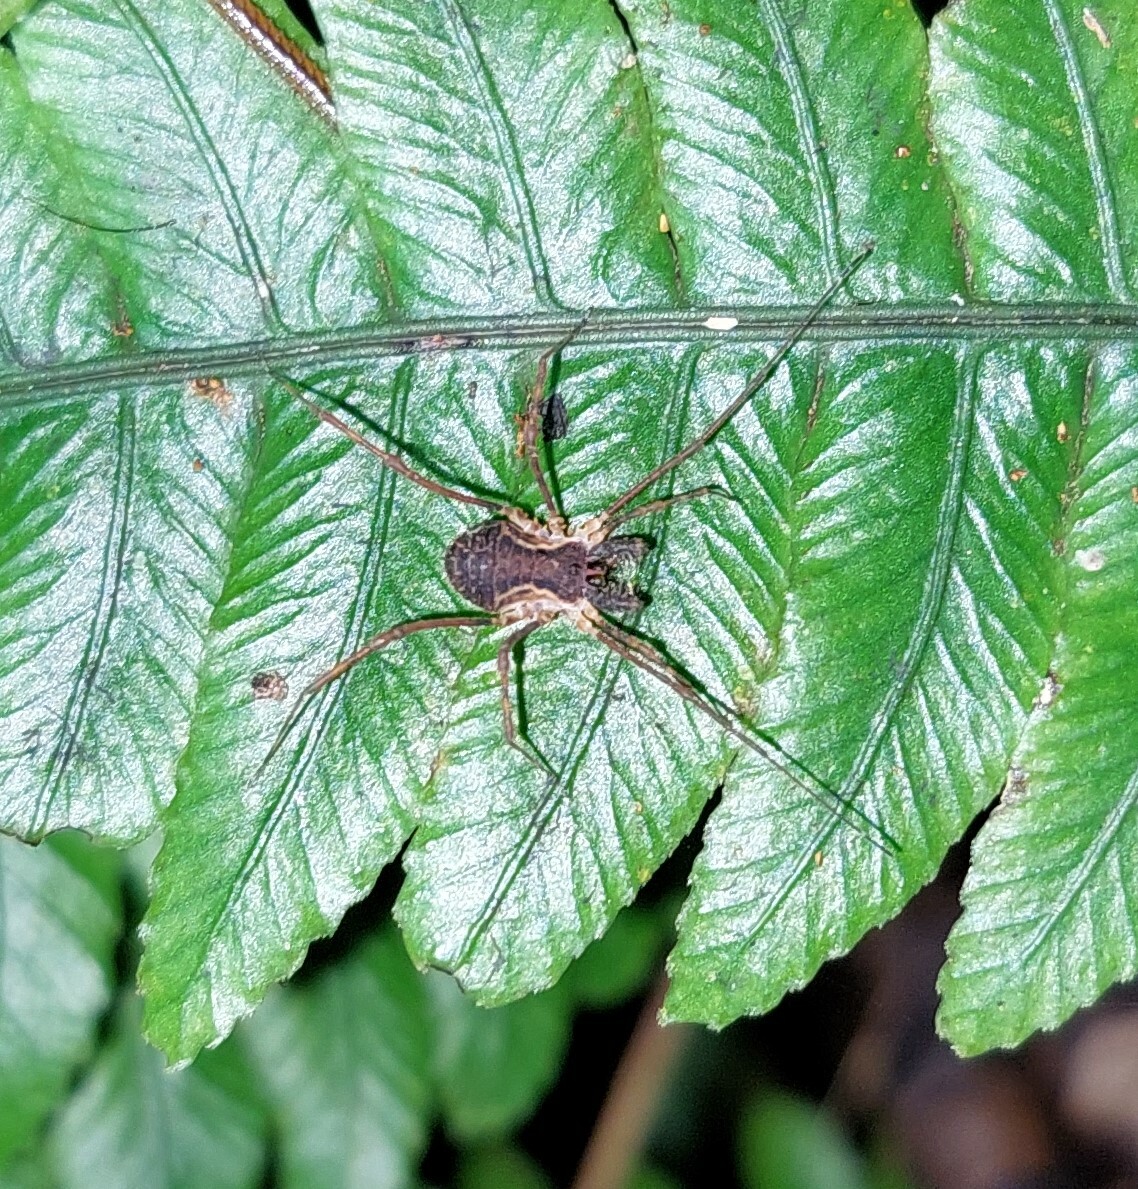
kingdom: Animalia
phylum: Arthropoda
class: Arachnida
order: Opiliones
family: Triaenonychidae
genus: Algidia
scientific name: Algidia chiltoni
